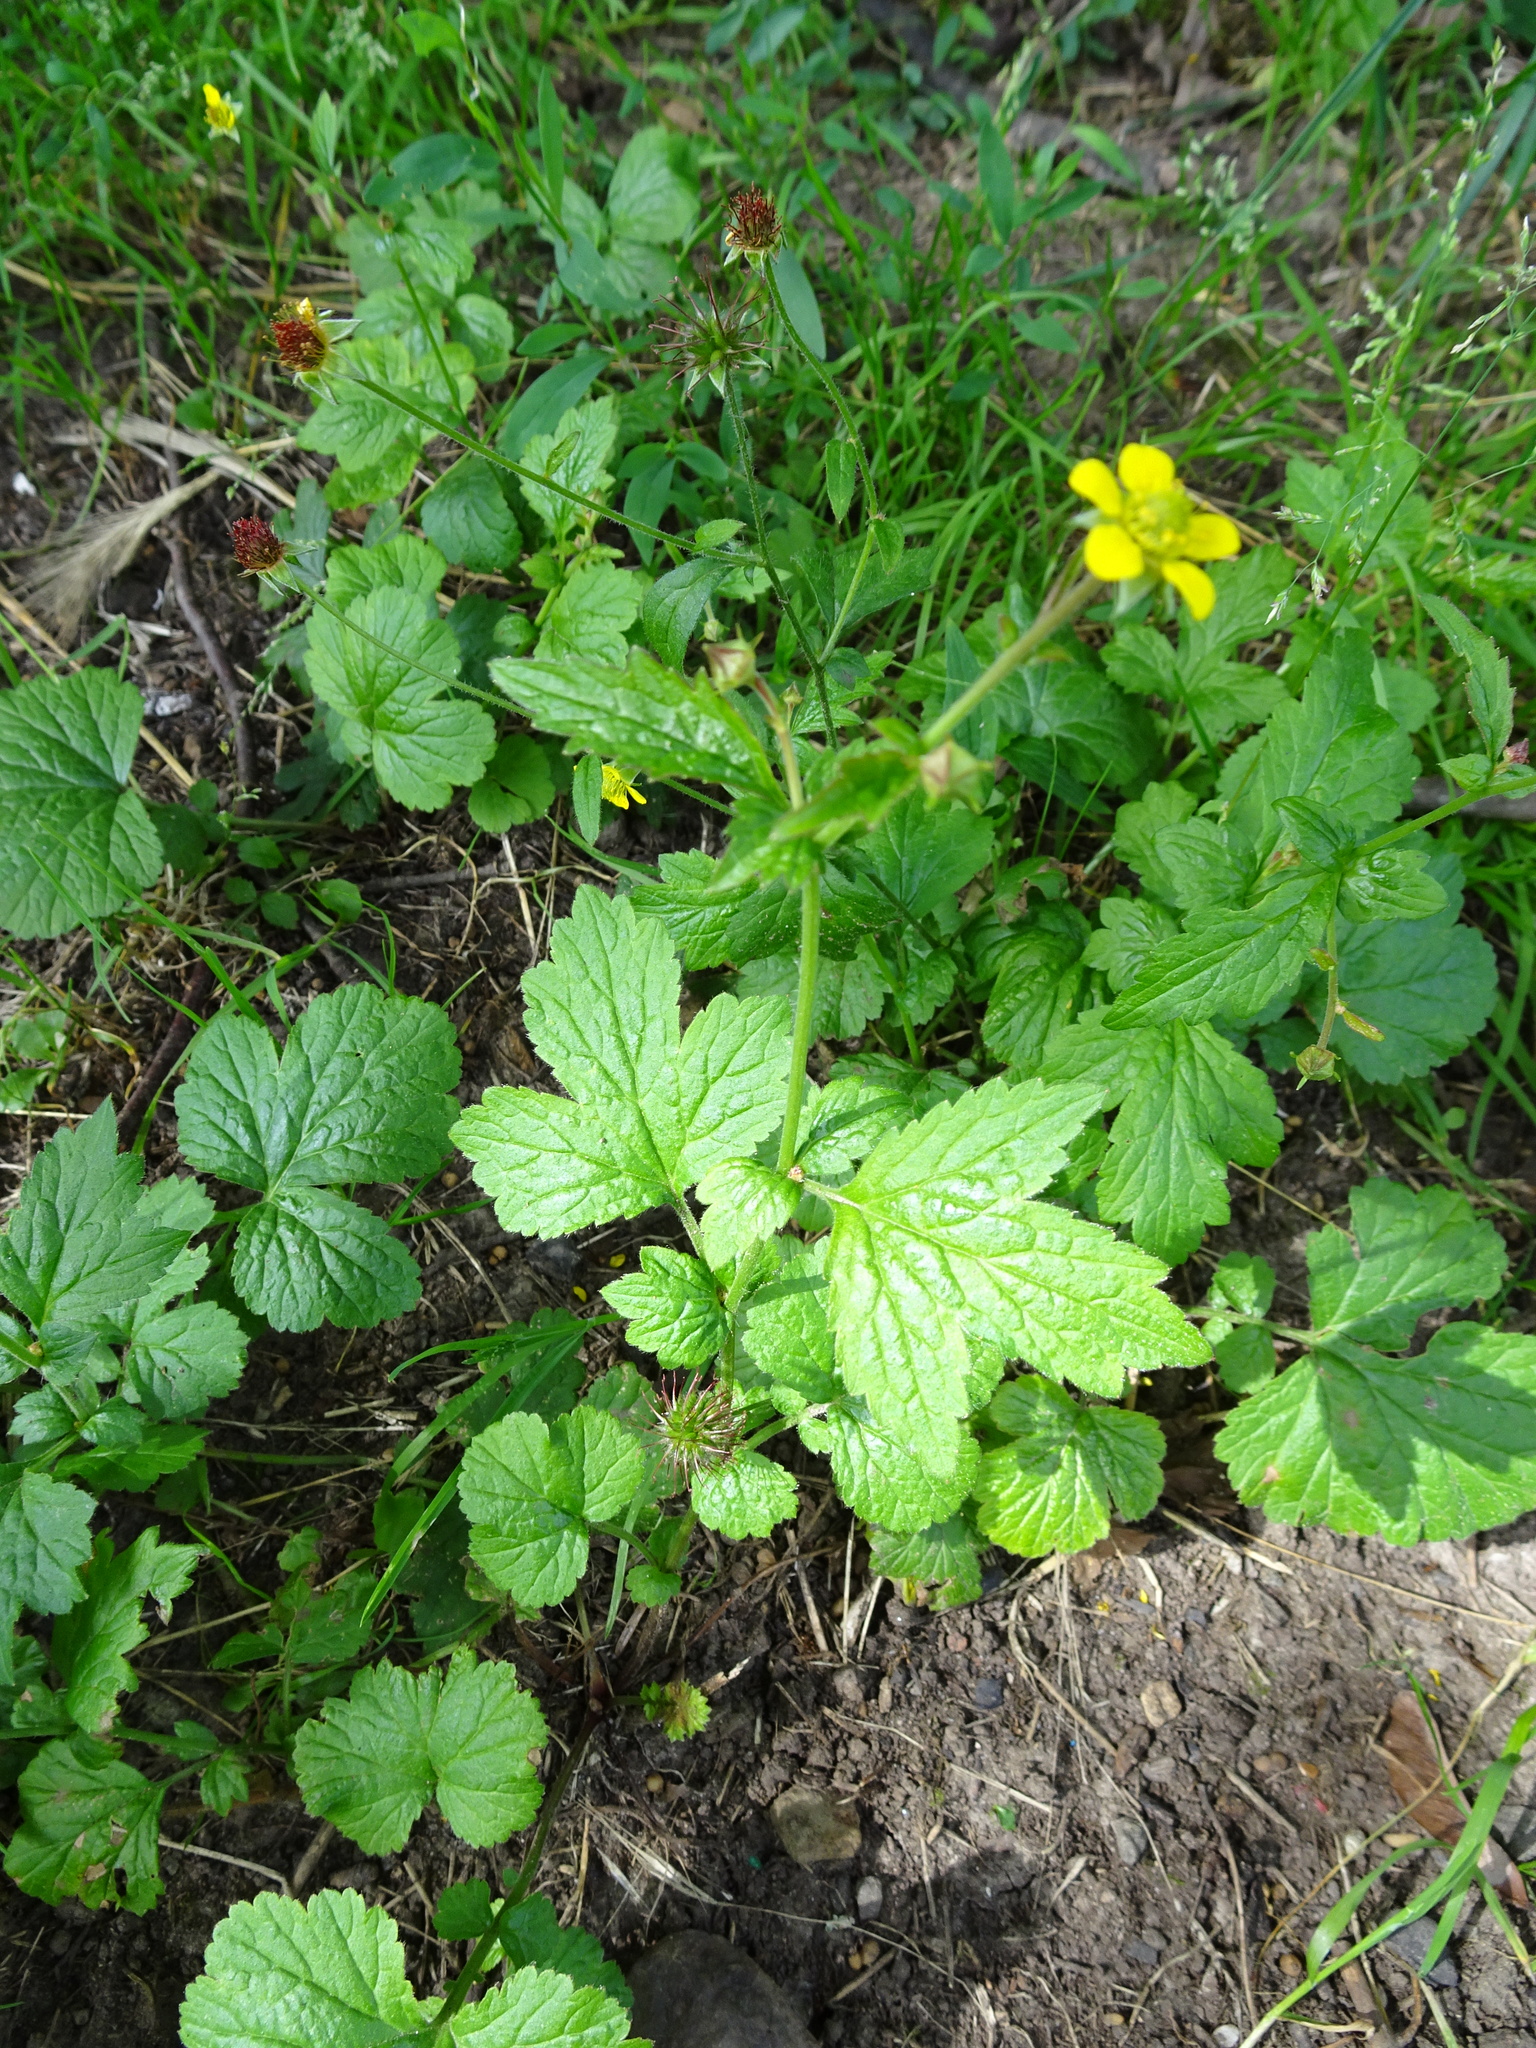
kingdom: Plantae
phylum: Tracheophyta
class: Magnoliopsida
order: Rosales
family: Rosaceae
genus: Geum
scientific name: Geum urbanum
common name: Wood avens
